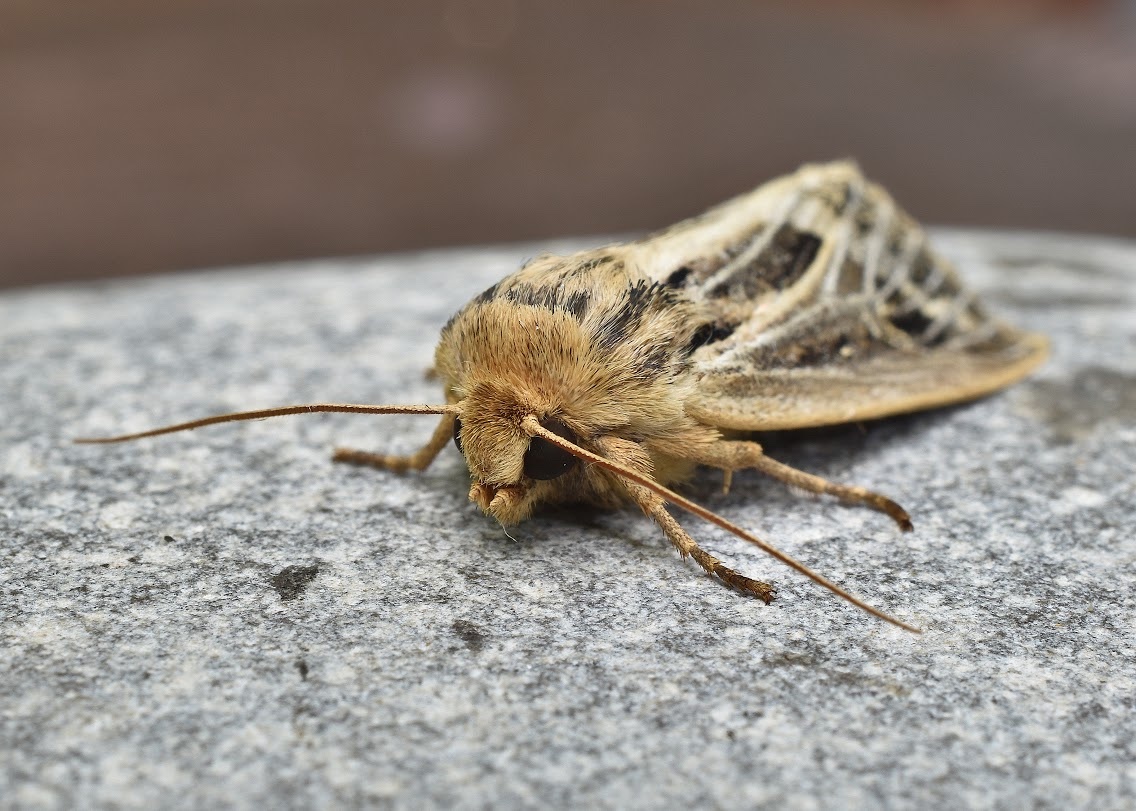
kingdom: Animalia
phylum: Arthropoda
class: Insecta
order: Lepidoptera
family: Noctuidae
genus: Apamea
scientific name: Apamea niveivenosa
